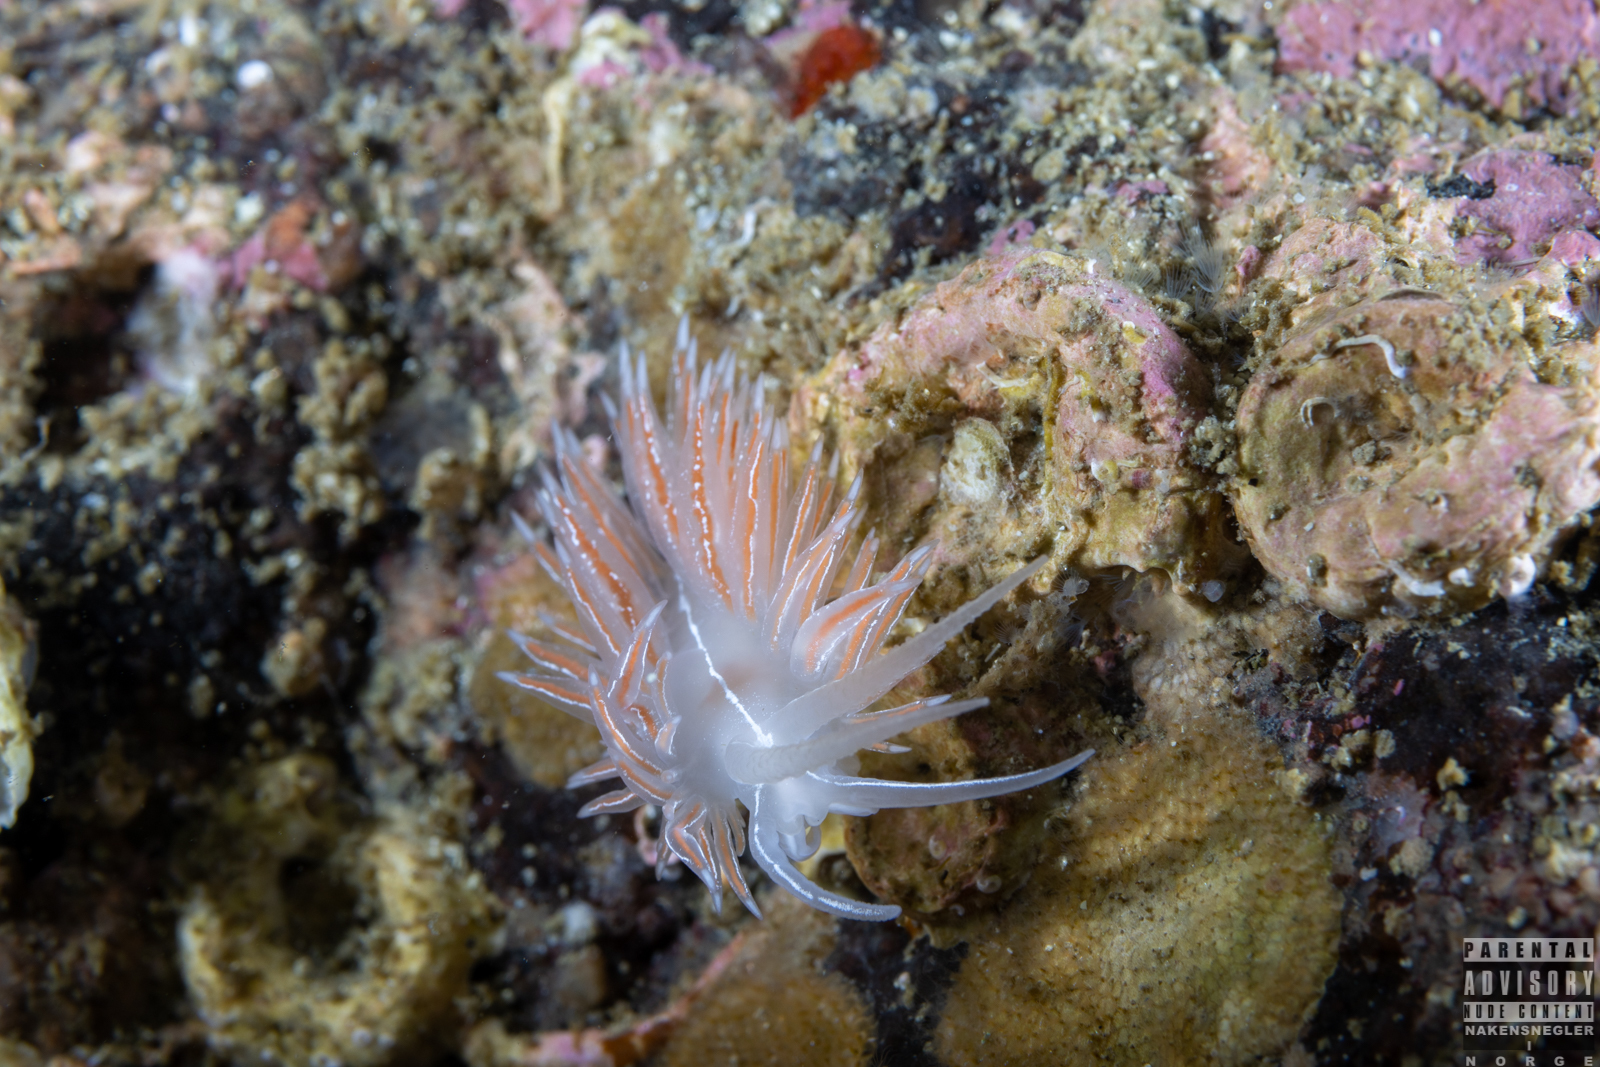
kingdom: Animalia
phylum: Mollusca
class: Gastropoda
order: Nudibranchia
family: Coryphellidae
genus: Coryphella
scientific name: Coryphella chriskaugei
